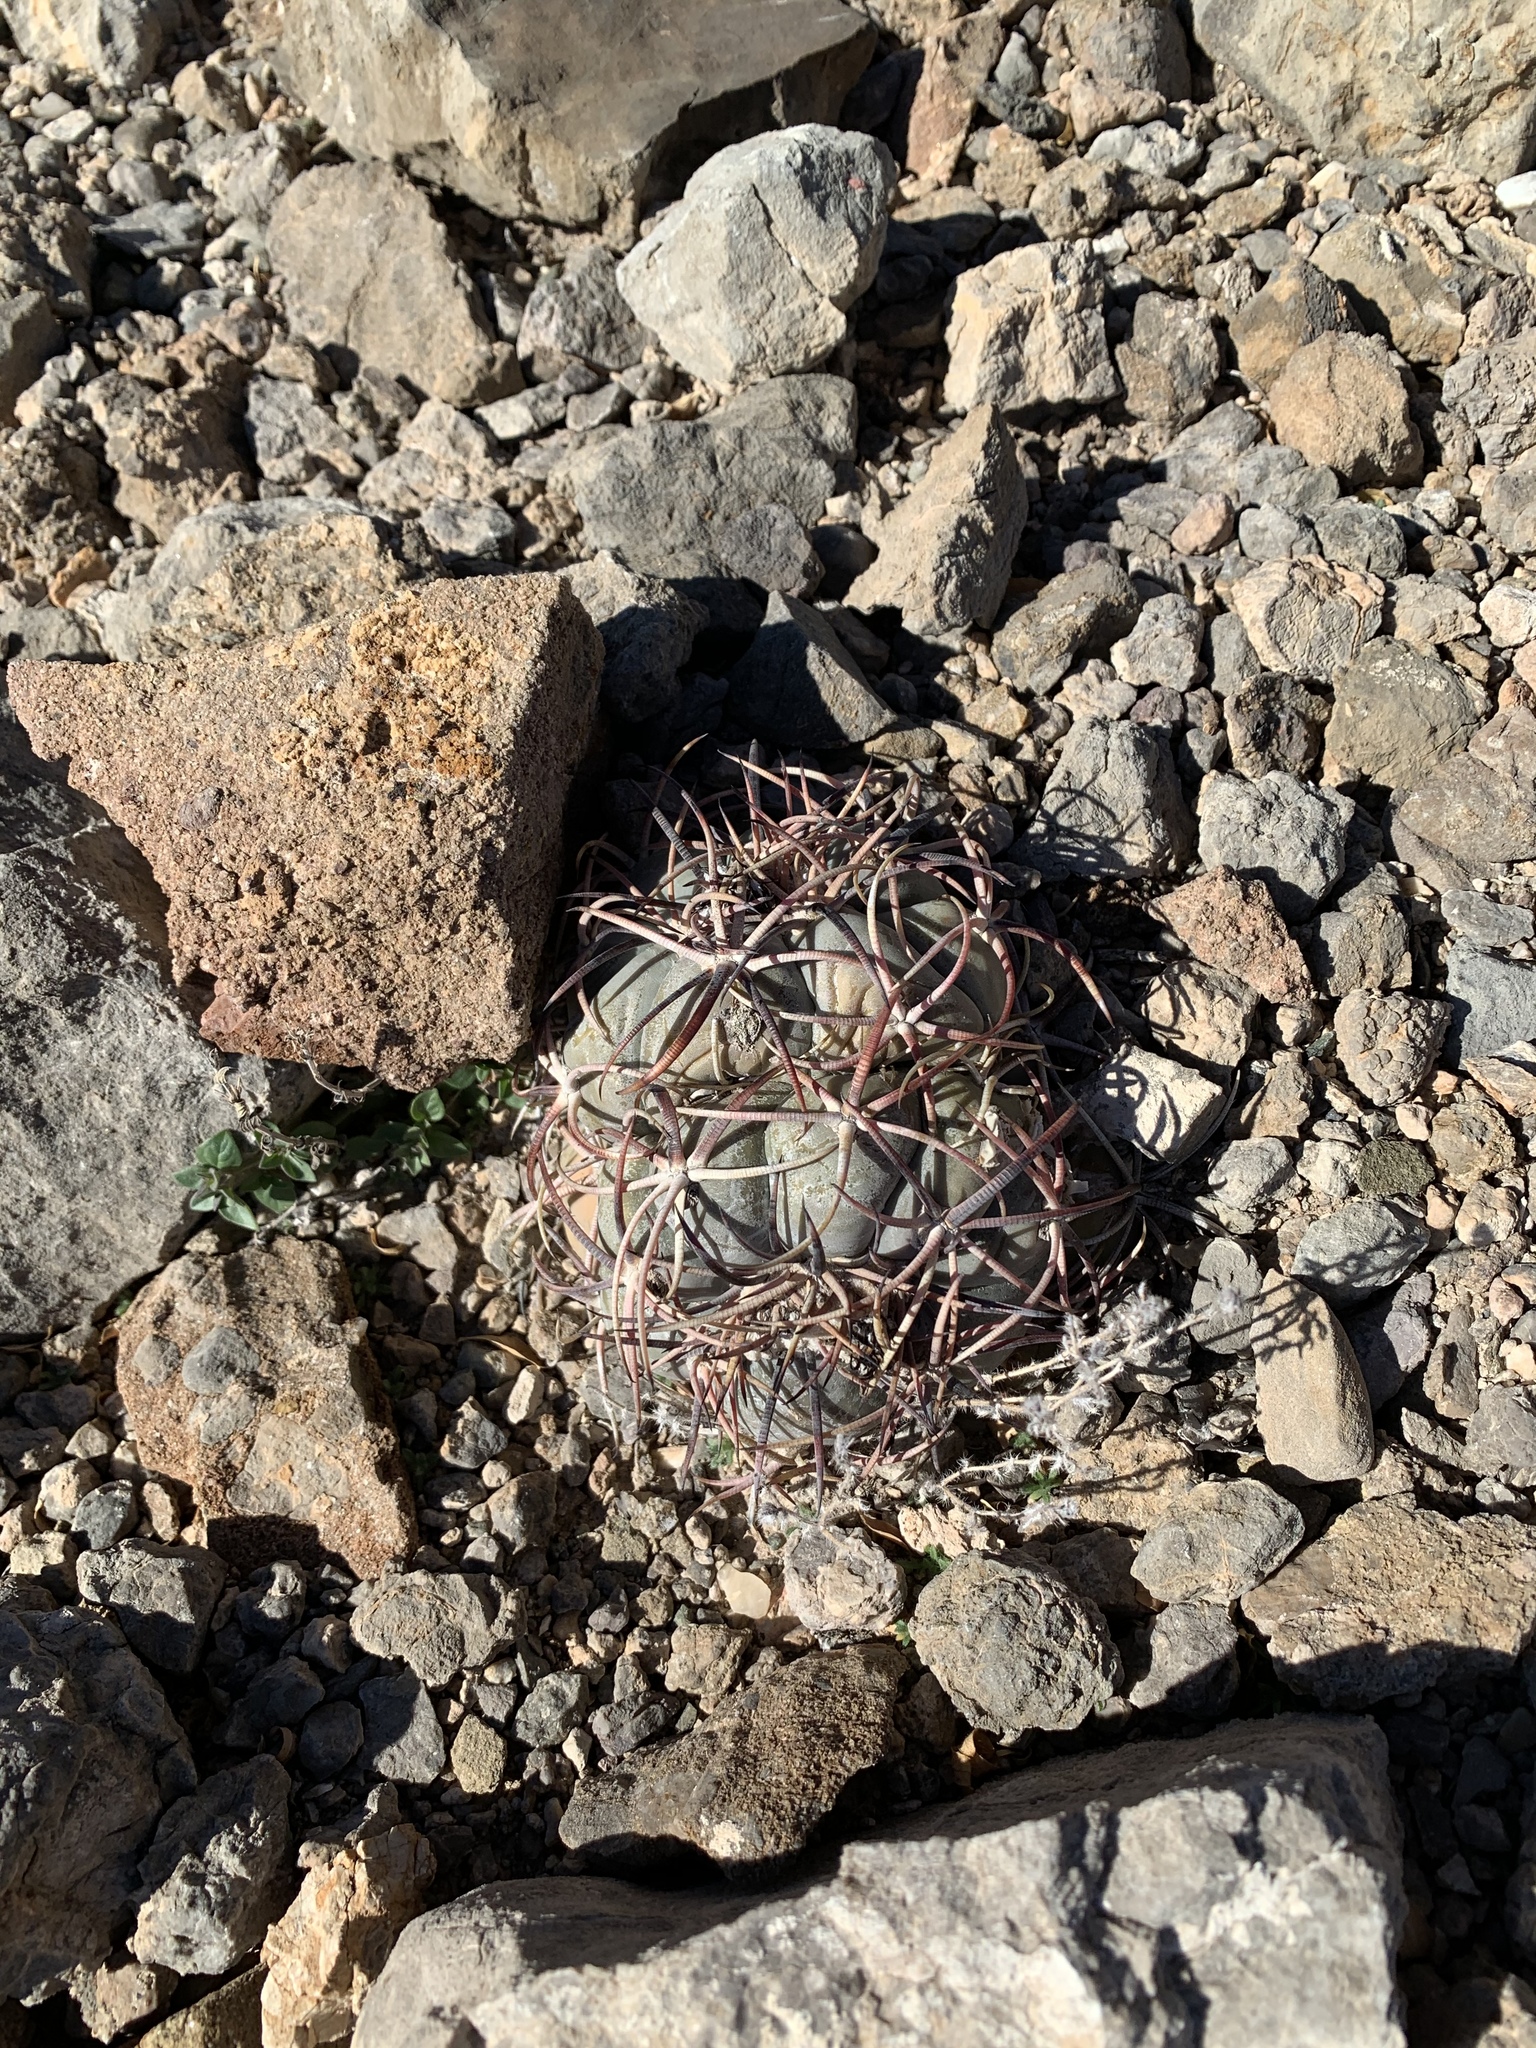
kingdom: Plantae
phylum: Tracheophyta
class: Magnoliopsida
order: Caryophyllales
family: Cactaceae
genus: Echinocactus
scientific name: Echinocactus horizonthalonius
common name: Devilshead
